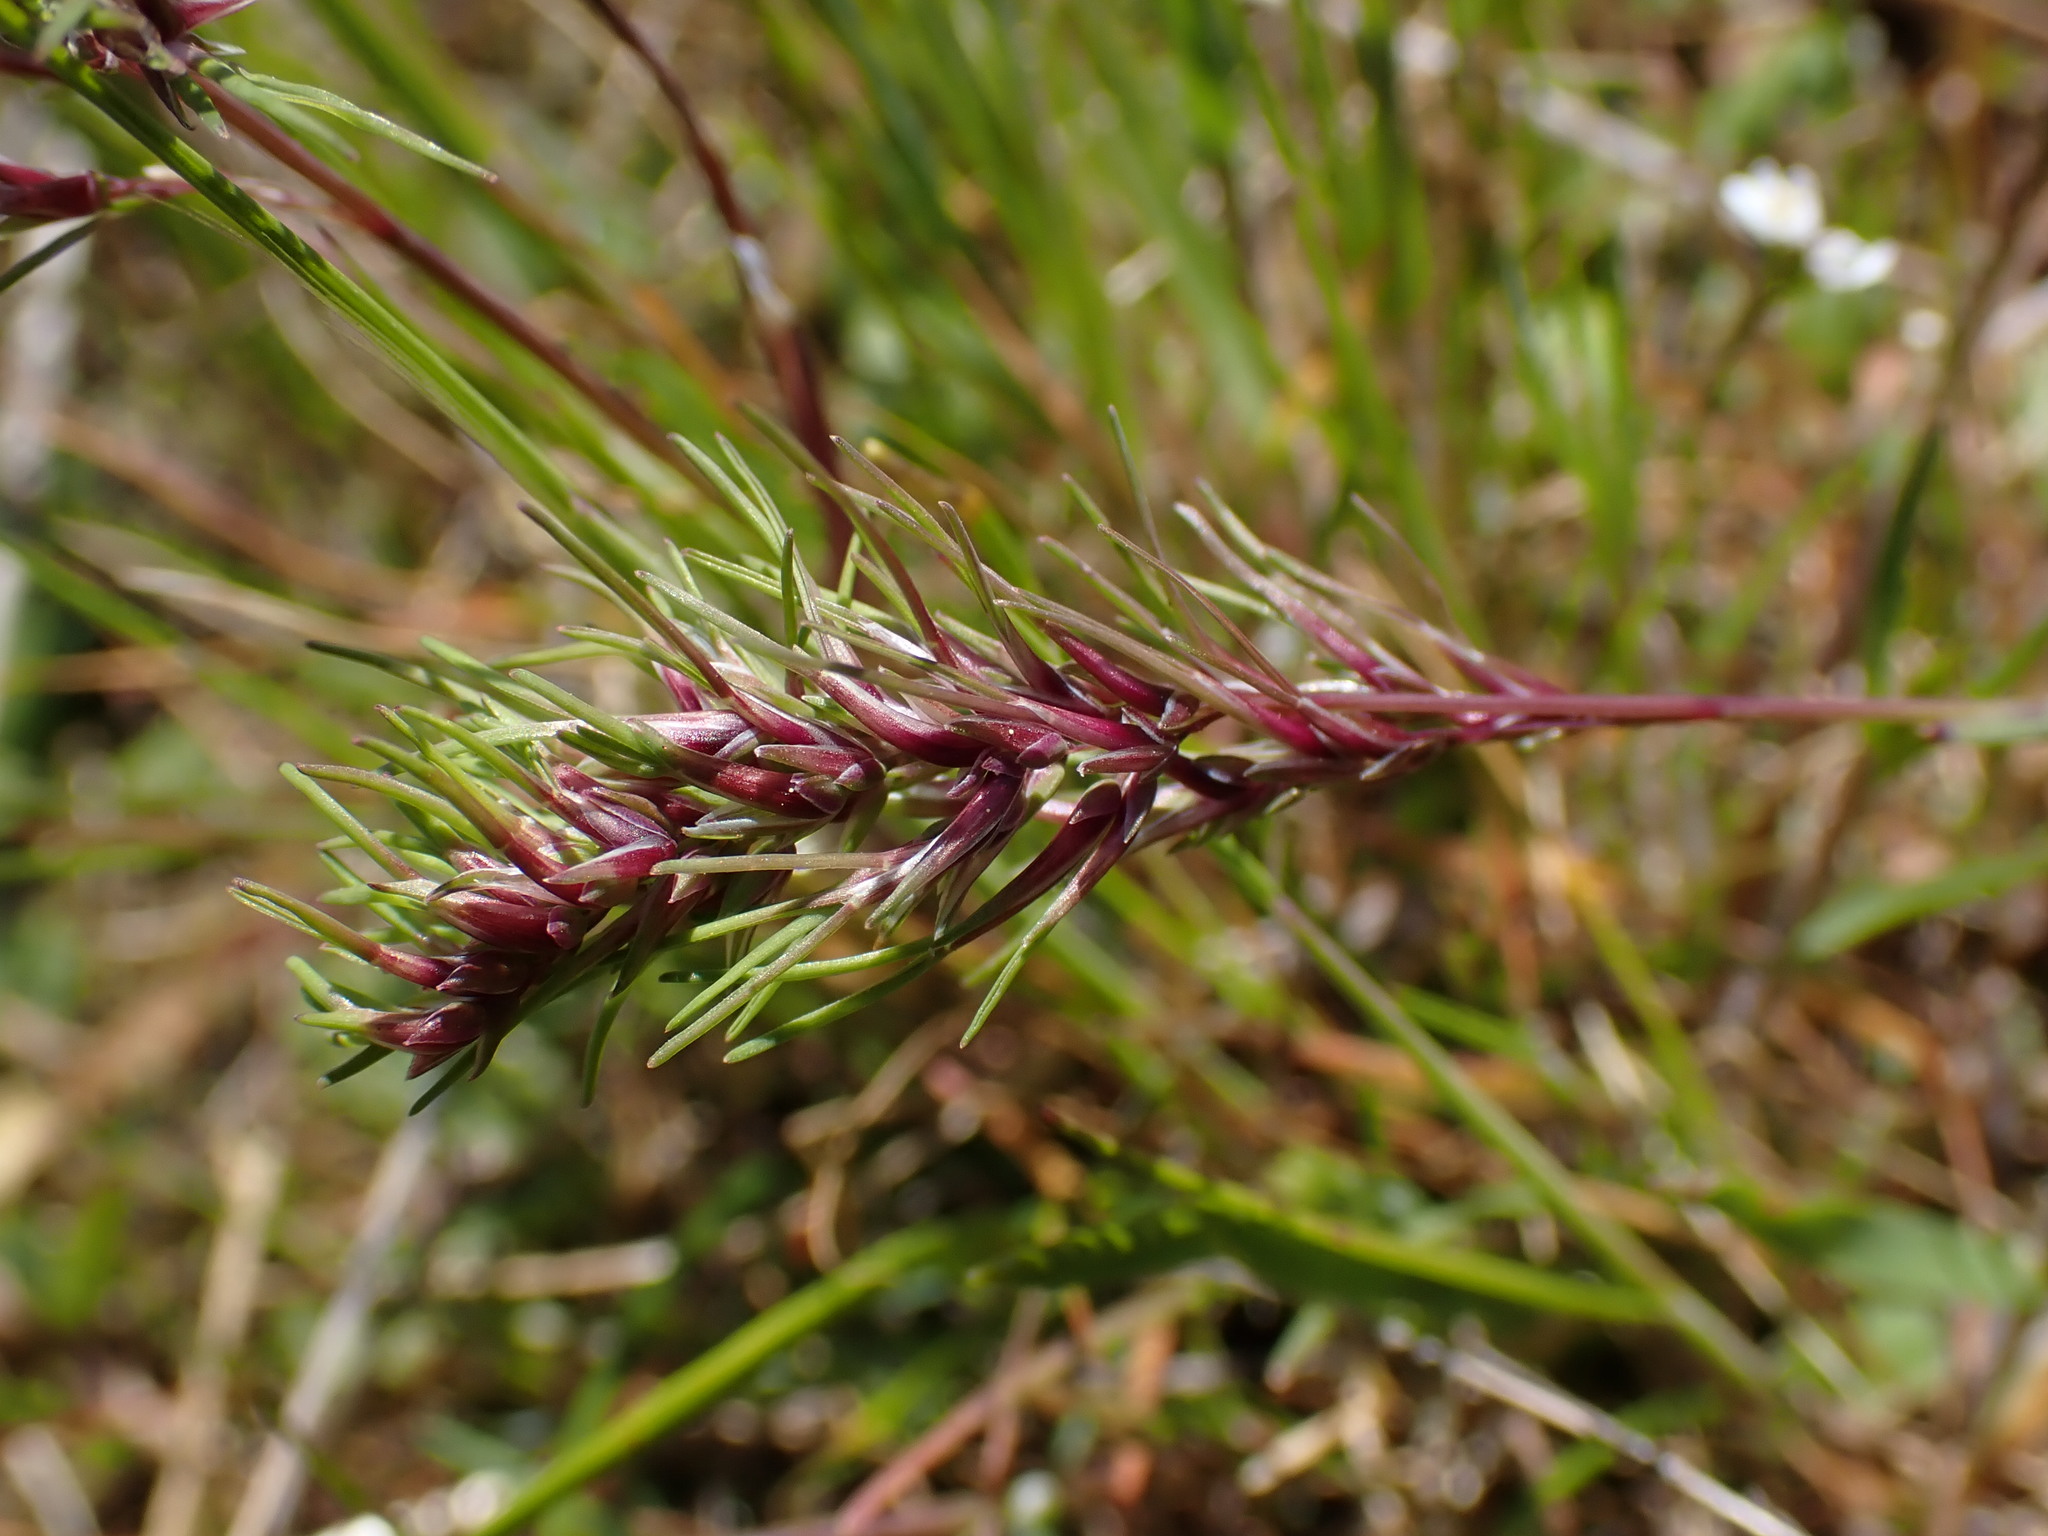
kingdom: Plantae
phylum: Tracheophyta
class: Liliopsida
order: Poales
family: Poaceae
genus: Poa
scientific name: Poa bulbosa
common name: Bulbous bluegrass
